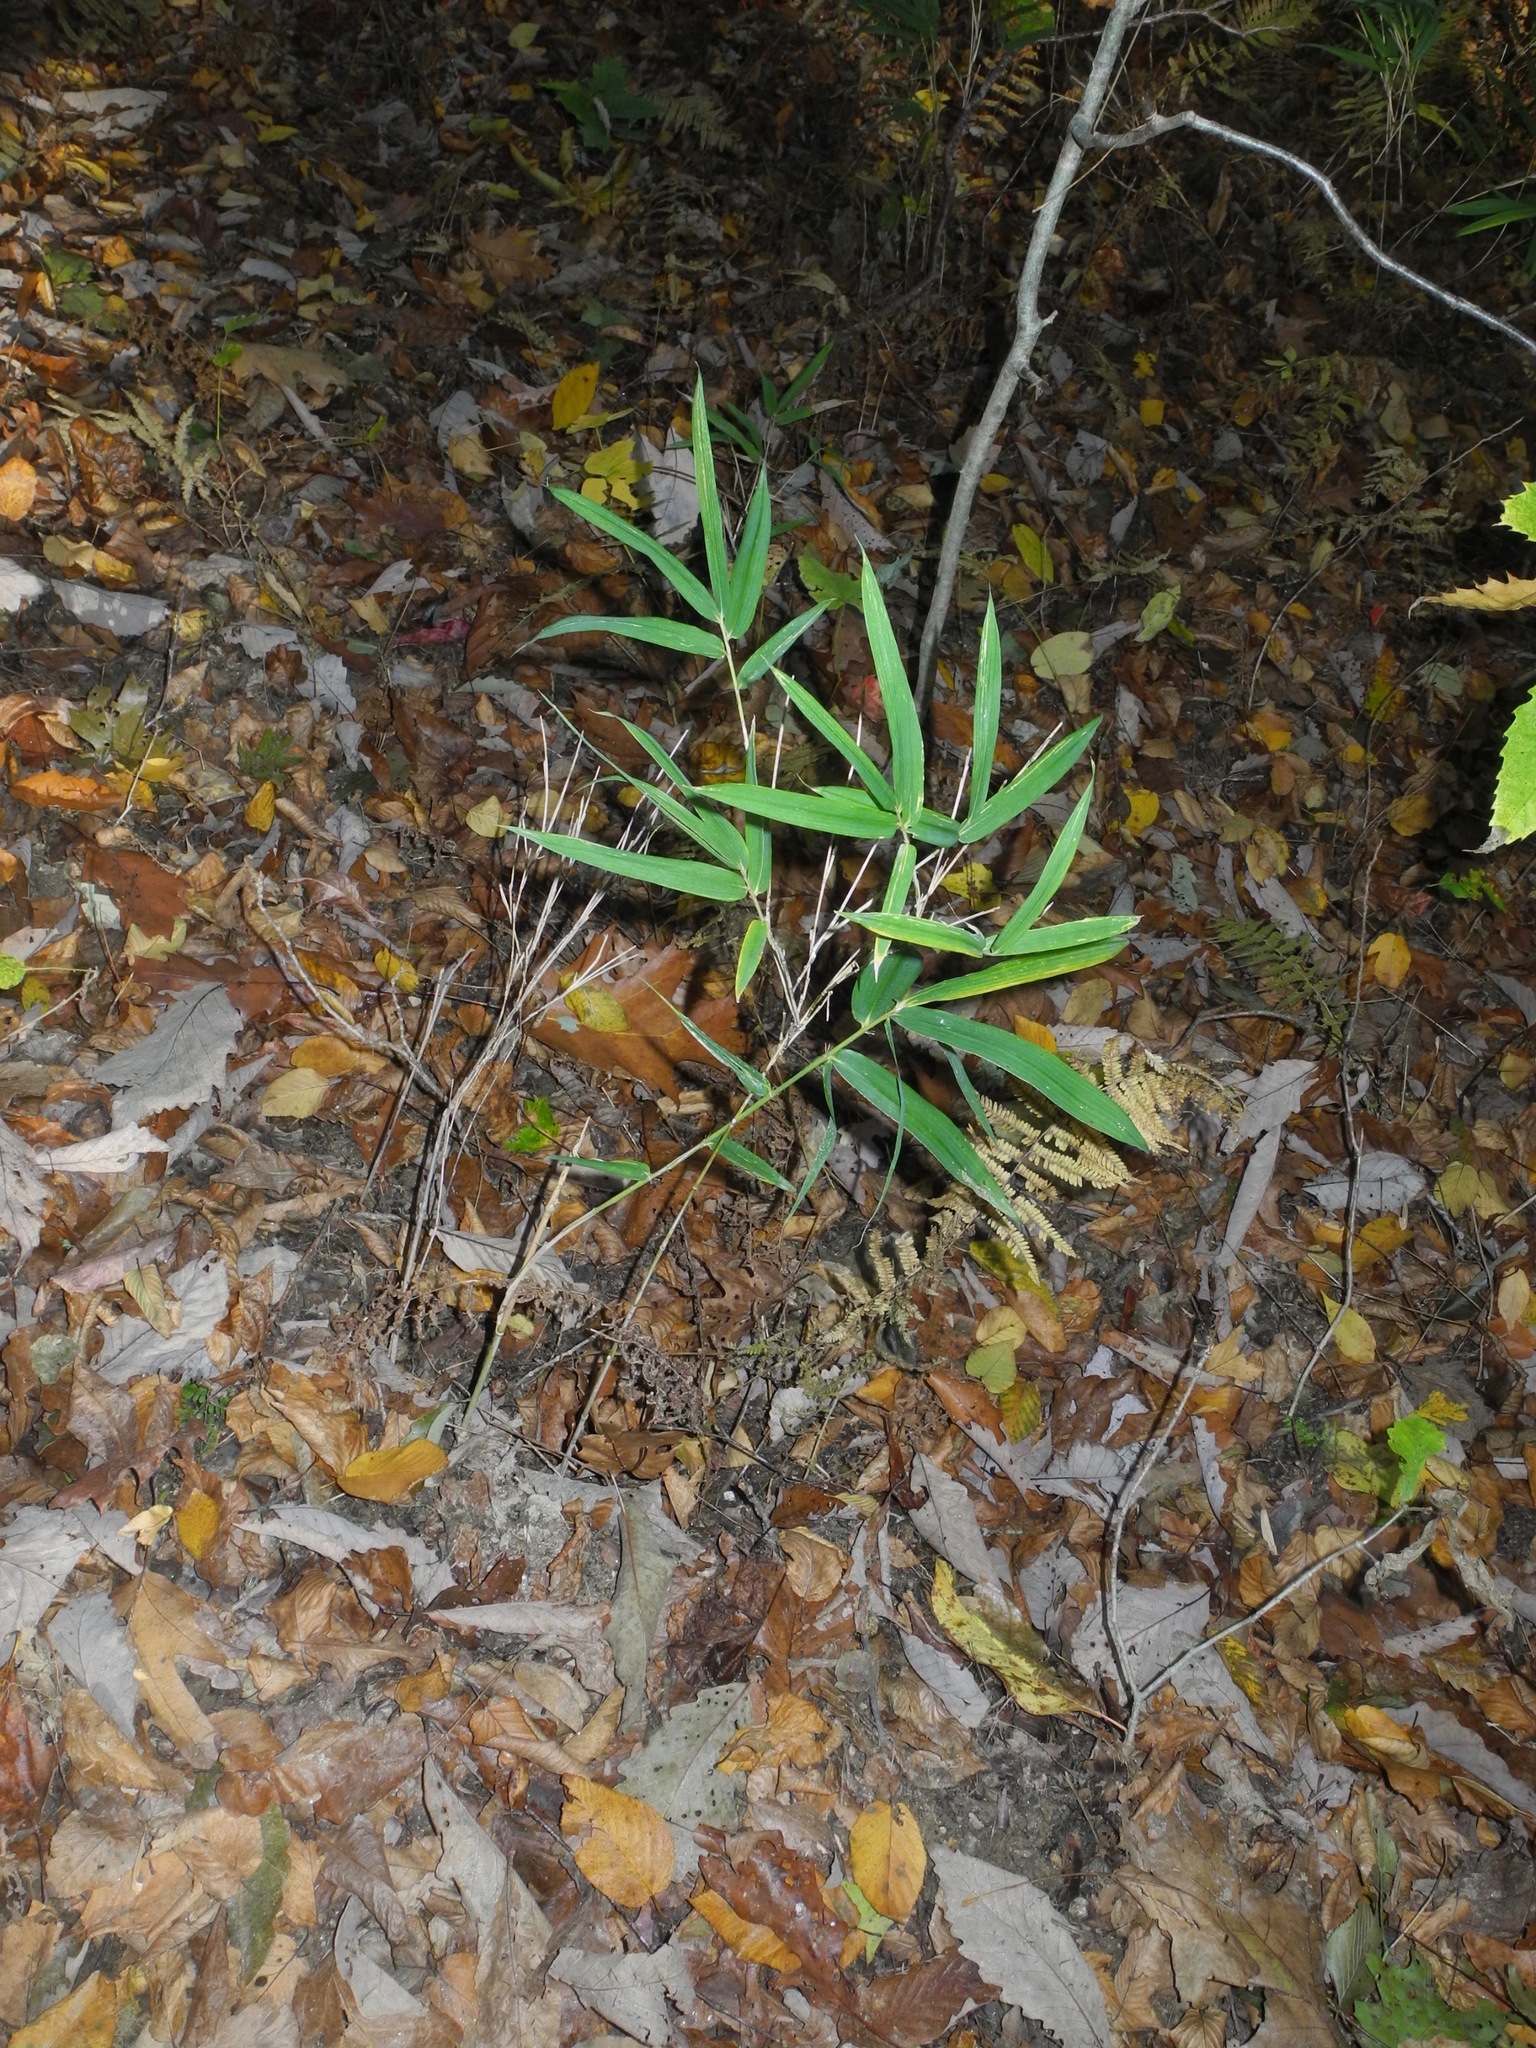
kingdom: Plantae
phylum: Tracheophyta
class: Liliopsida
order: Poales
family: Poaceae
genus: Arundinaria
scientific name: Arundinaria appalachiana
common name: Hill cane
